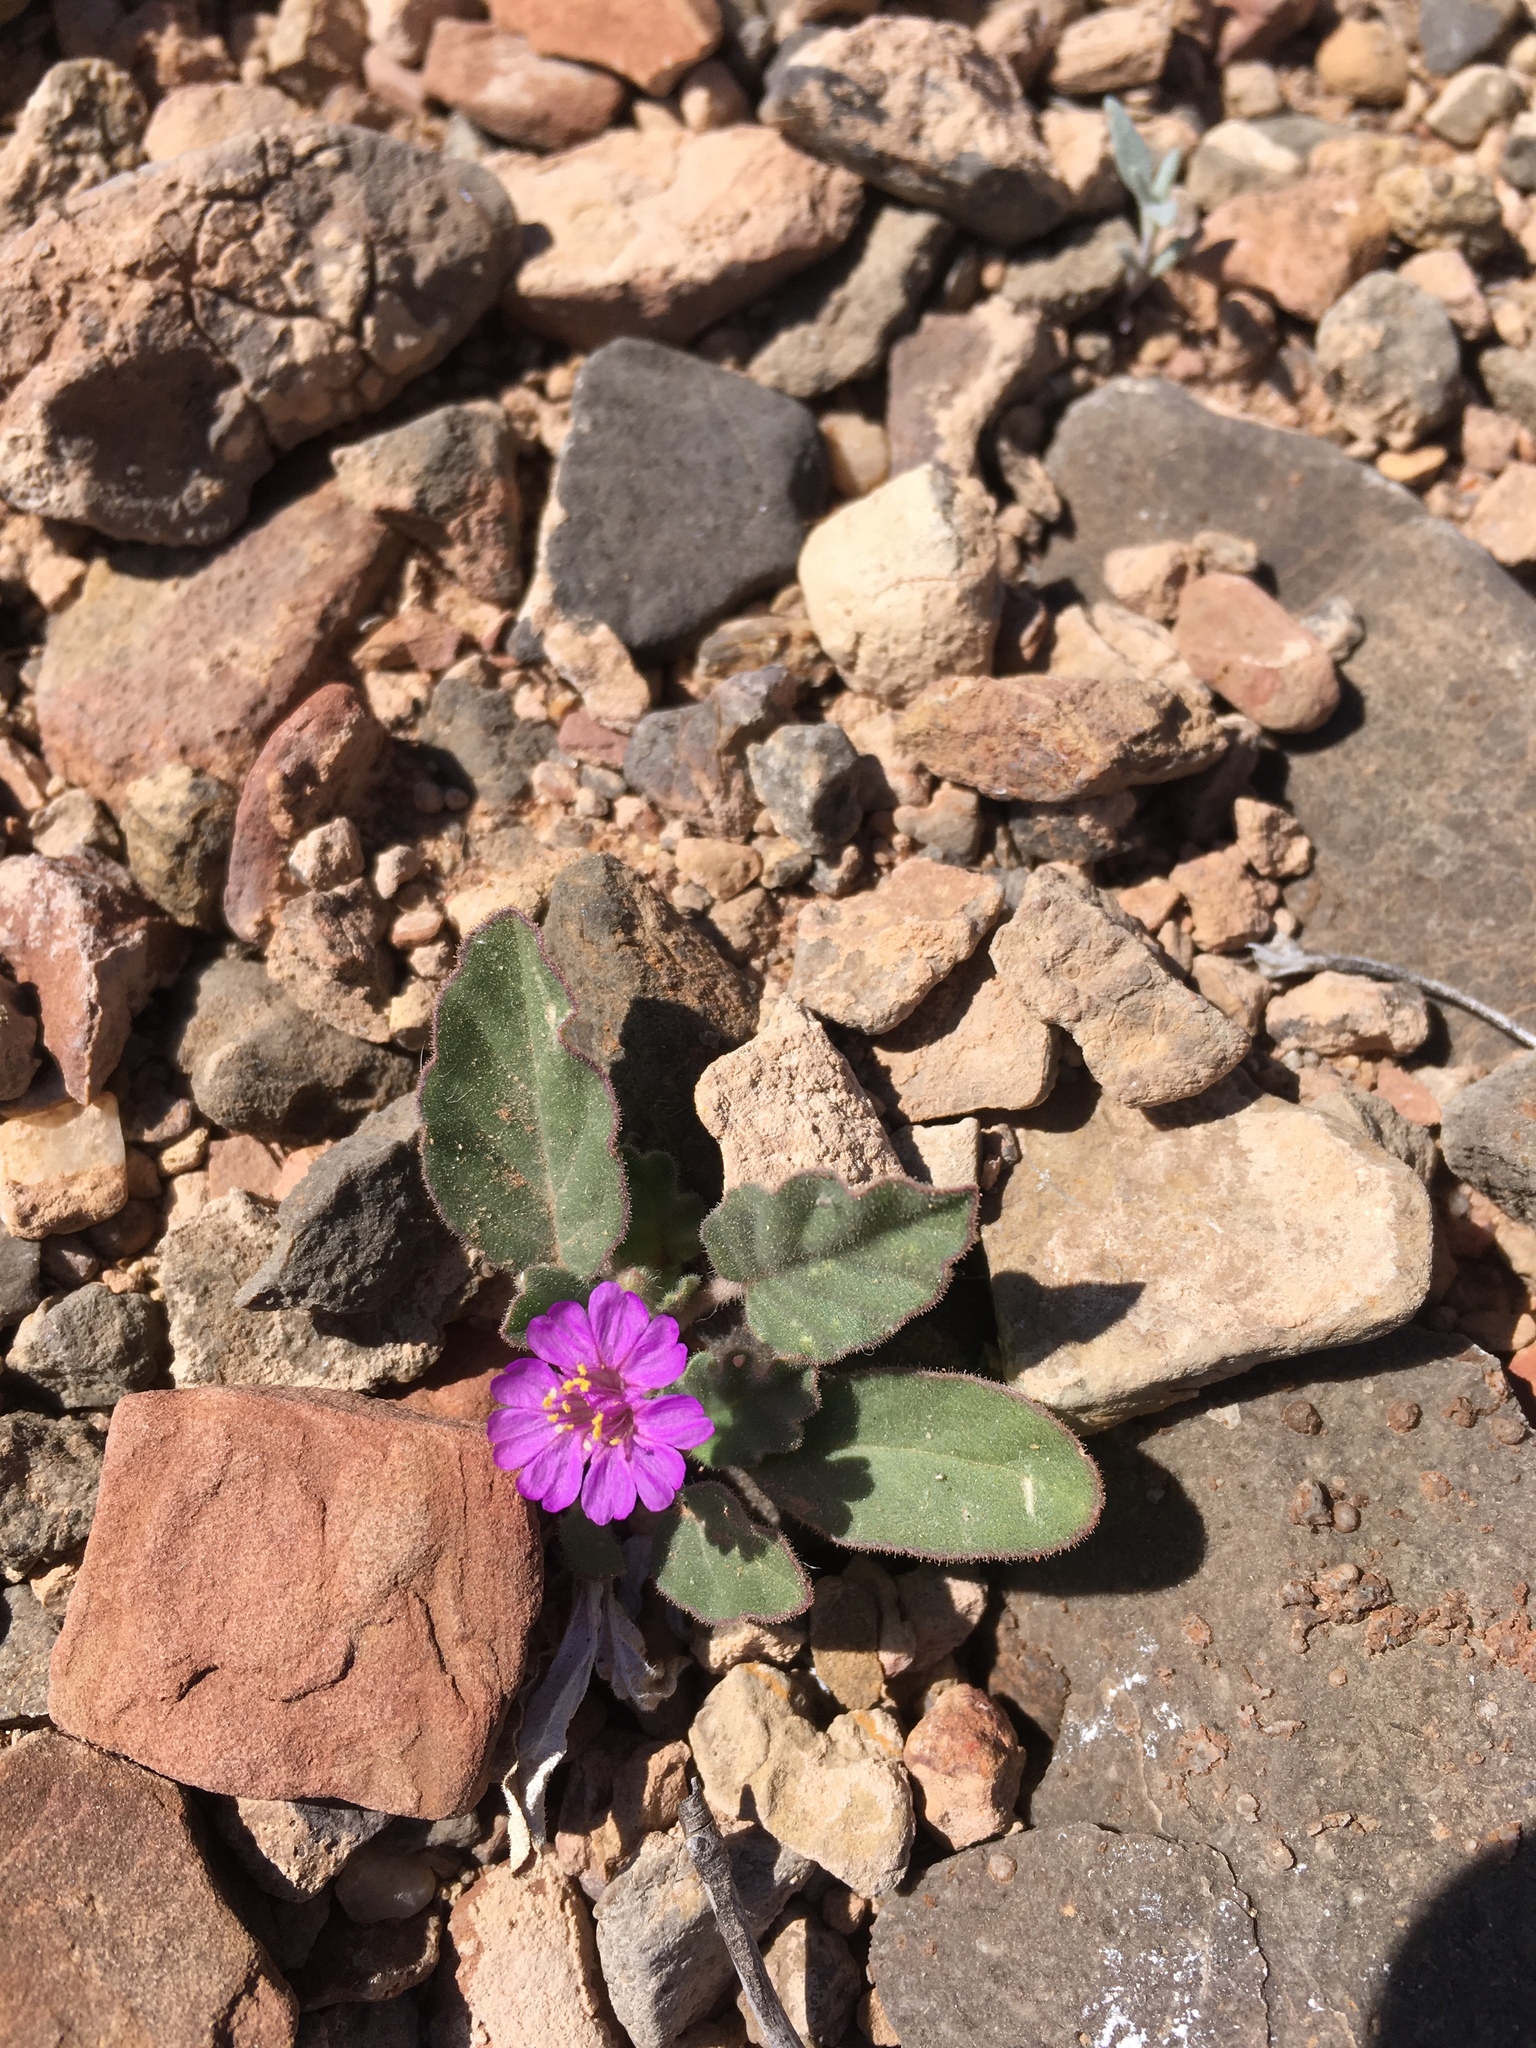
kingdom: Plantae
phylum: Tracheophyta
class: Magnoliopsida
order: Caryophyllales
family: Nyctaginaceae
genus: Allionia
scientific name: Allionia incarnata
